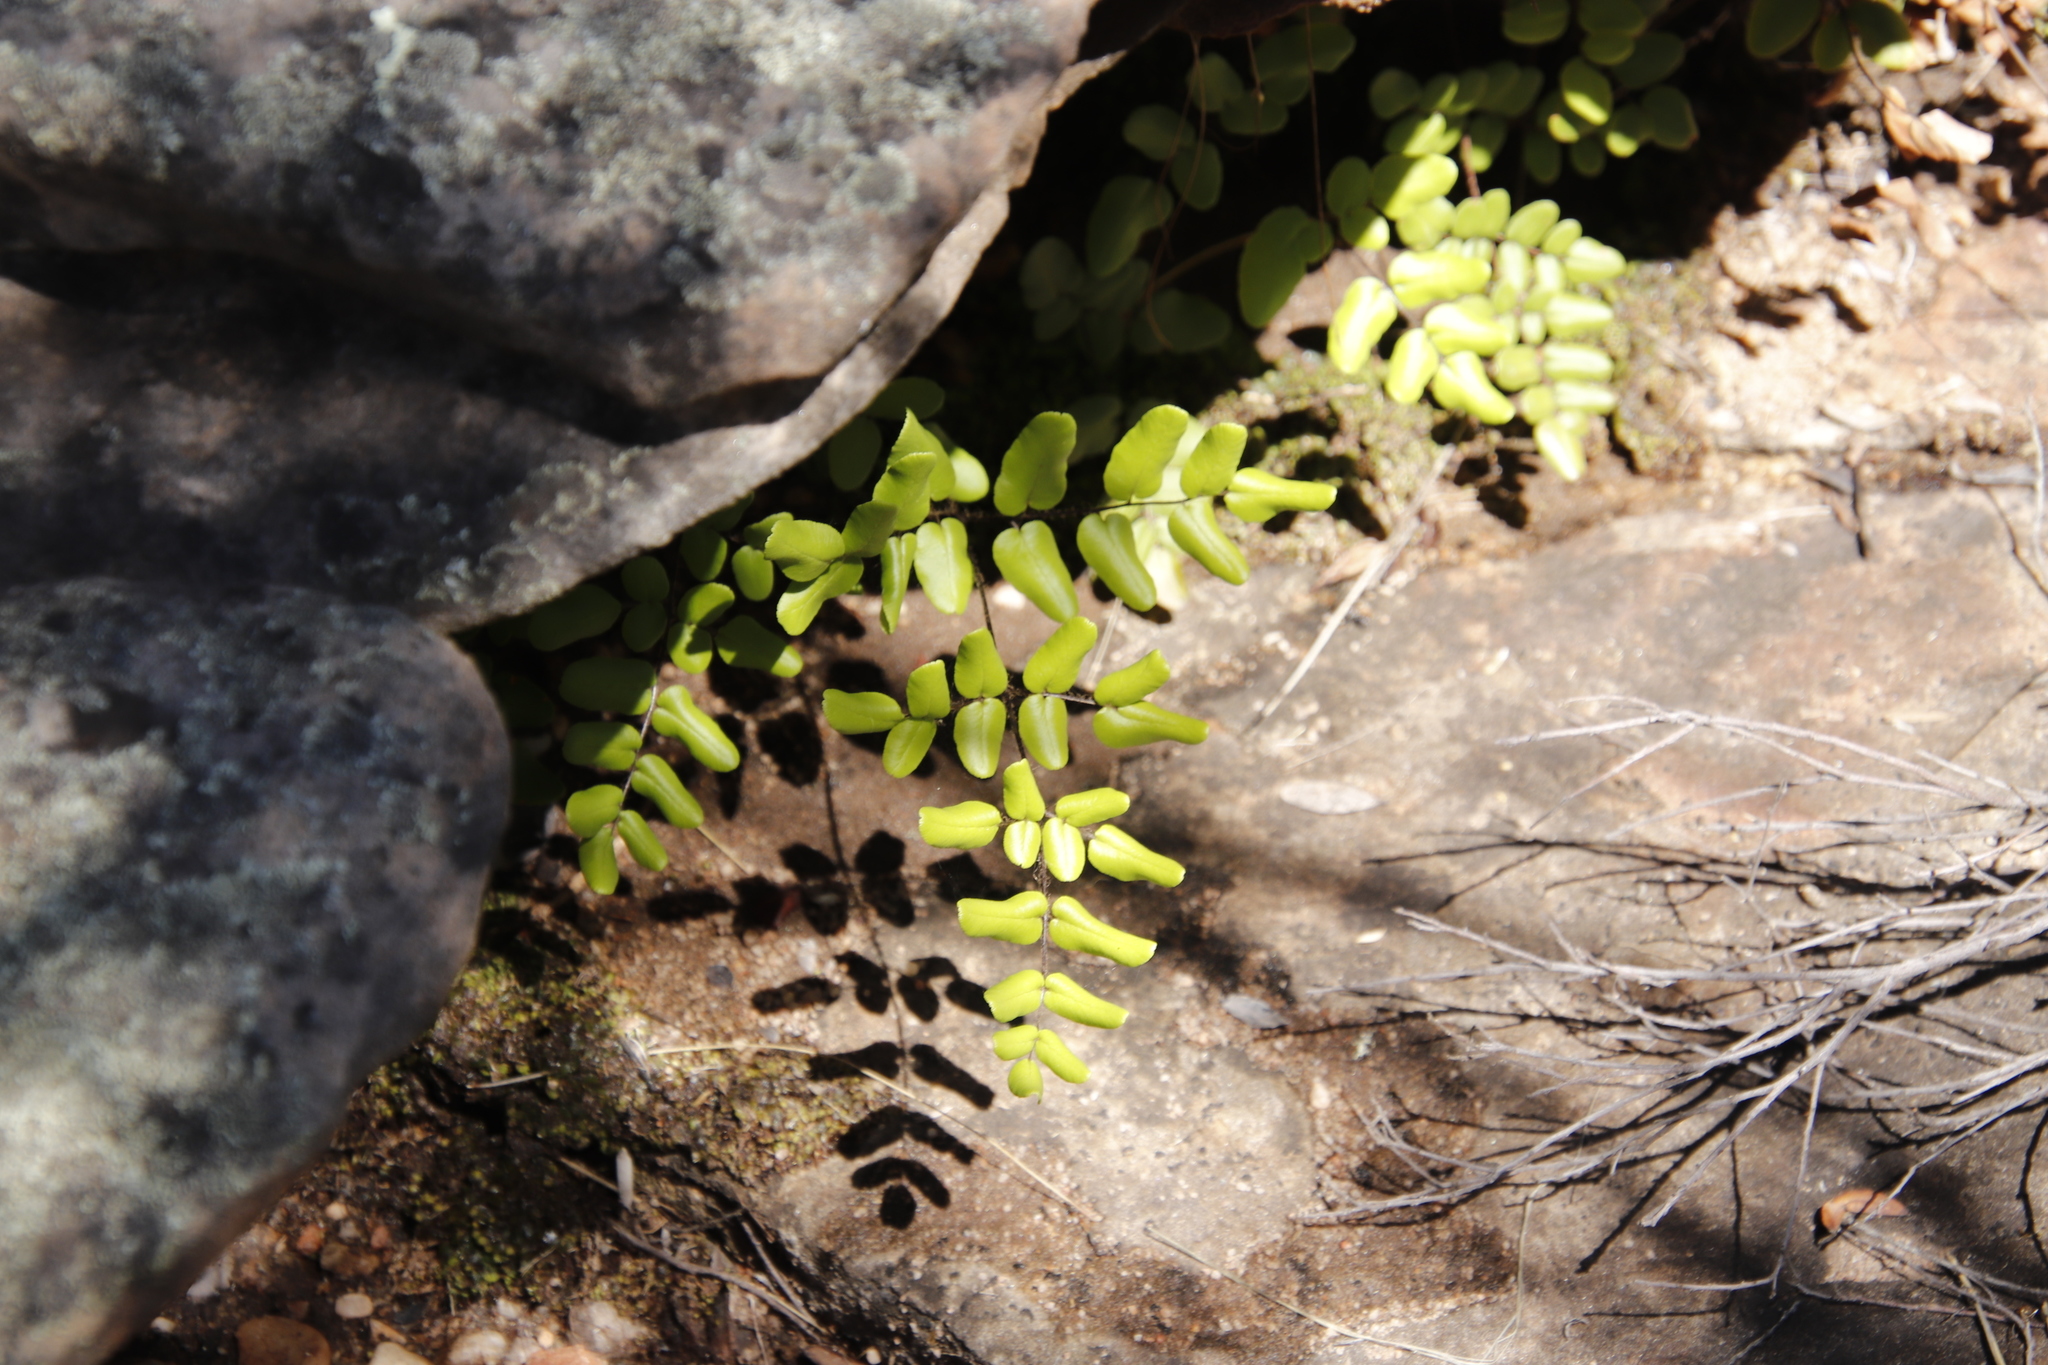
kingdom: Plantae
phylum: Tracheophyta
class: Polypodiopsida
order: Polypodiales
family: Pteridaceae
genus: Pellaea
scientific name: Pellaea pteroides
